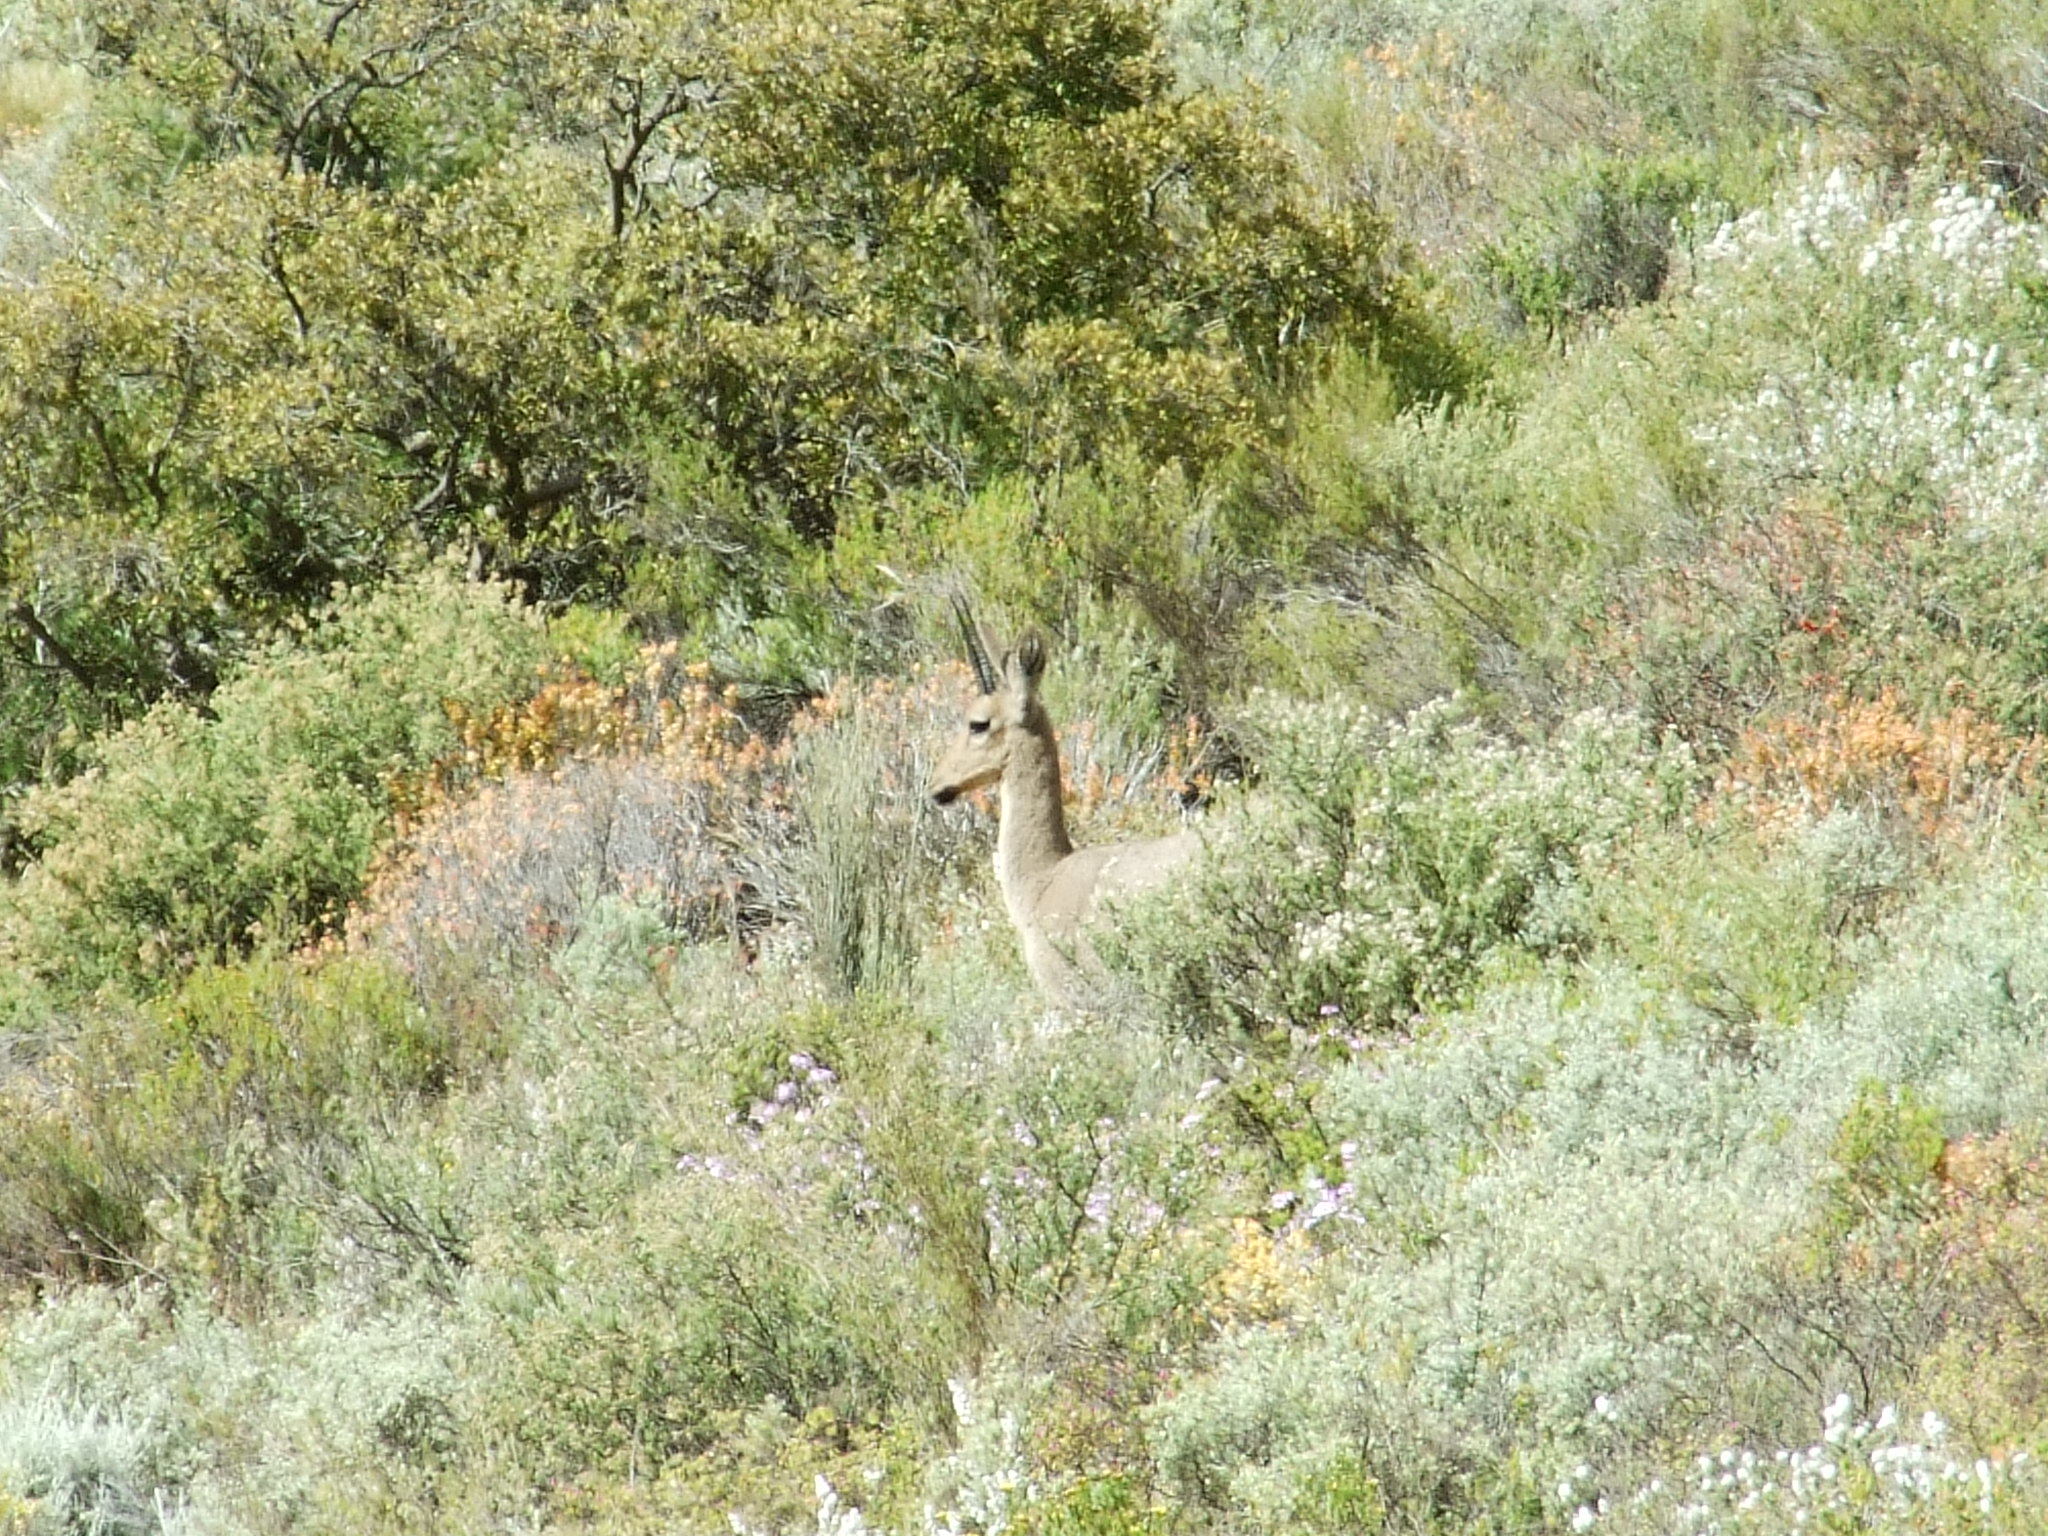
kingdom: Animalia
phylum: Chordata
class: Mammalia
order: Artiodactyla
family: Bovidae
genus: Pelea
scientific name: Pelea capreolus
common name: Common rhebok
